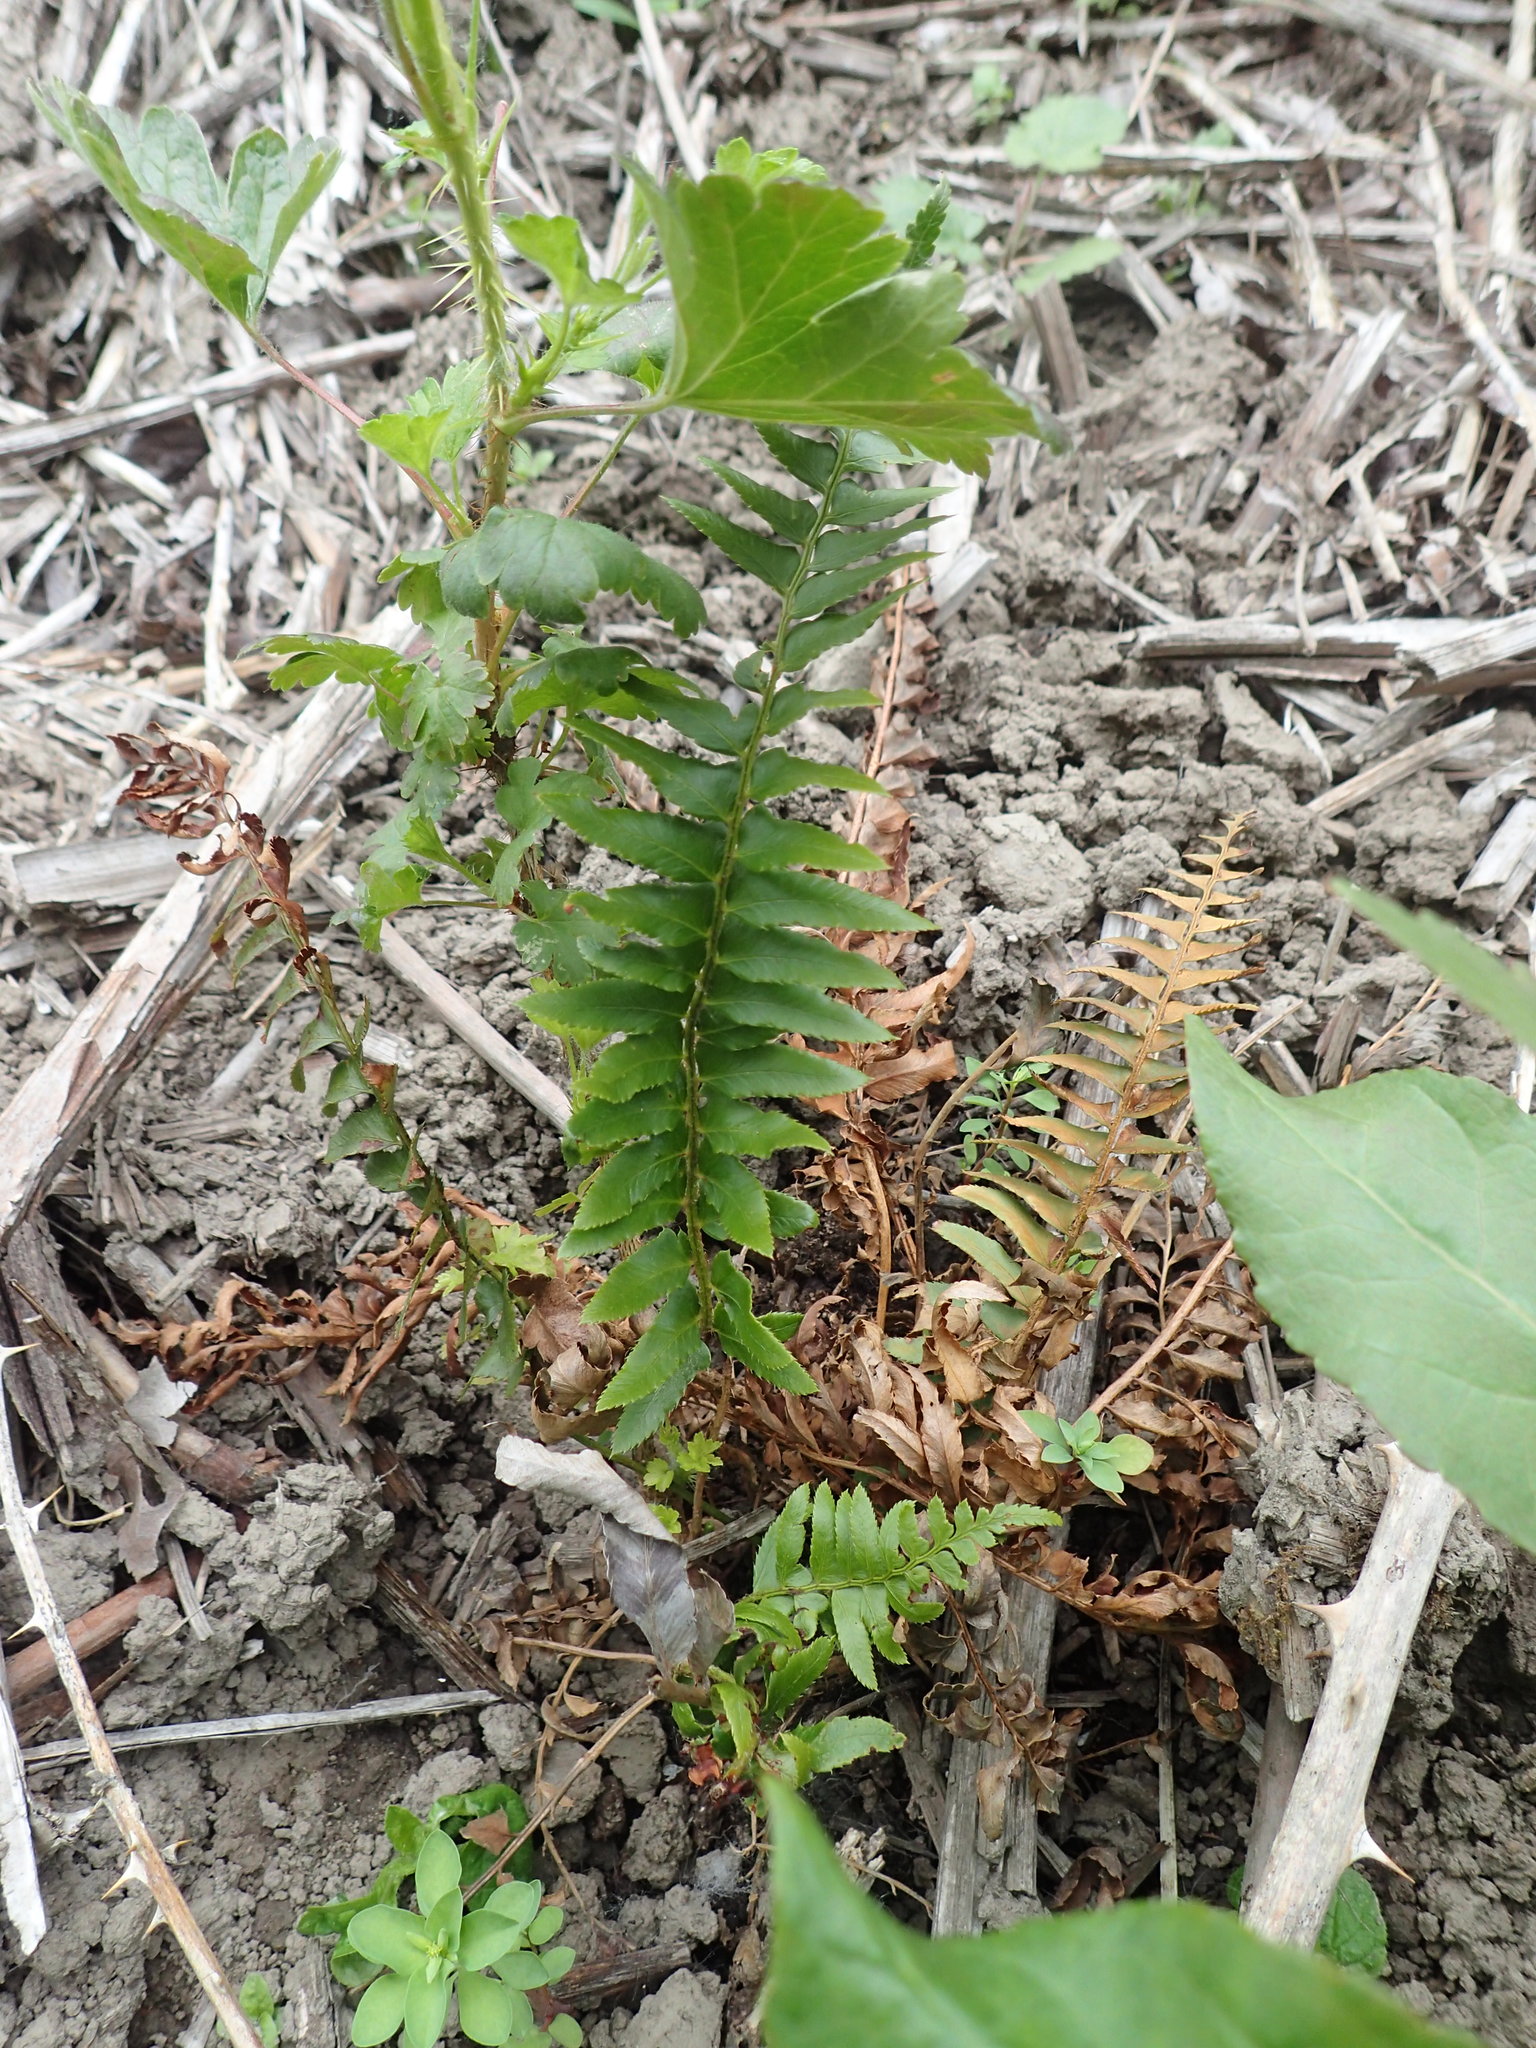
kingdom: Plantae
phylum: Tracheophyta
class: Polypodiopsida
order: Polypodiales
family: Dryopteridaceae
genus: Polystichum
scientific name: Polystichum munitum
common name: Western sword-fern
